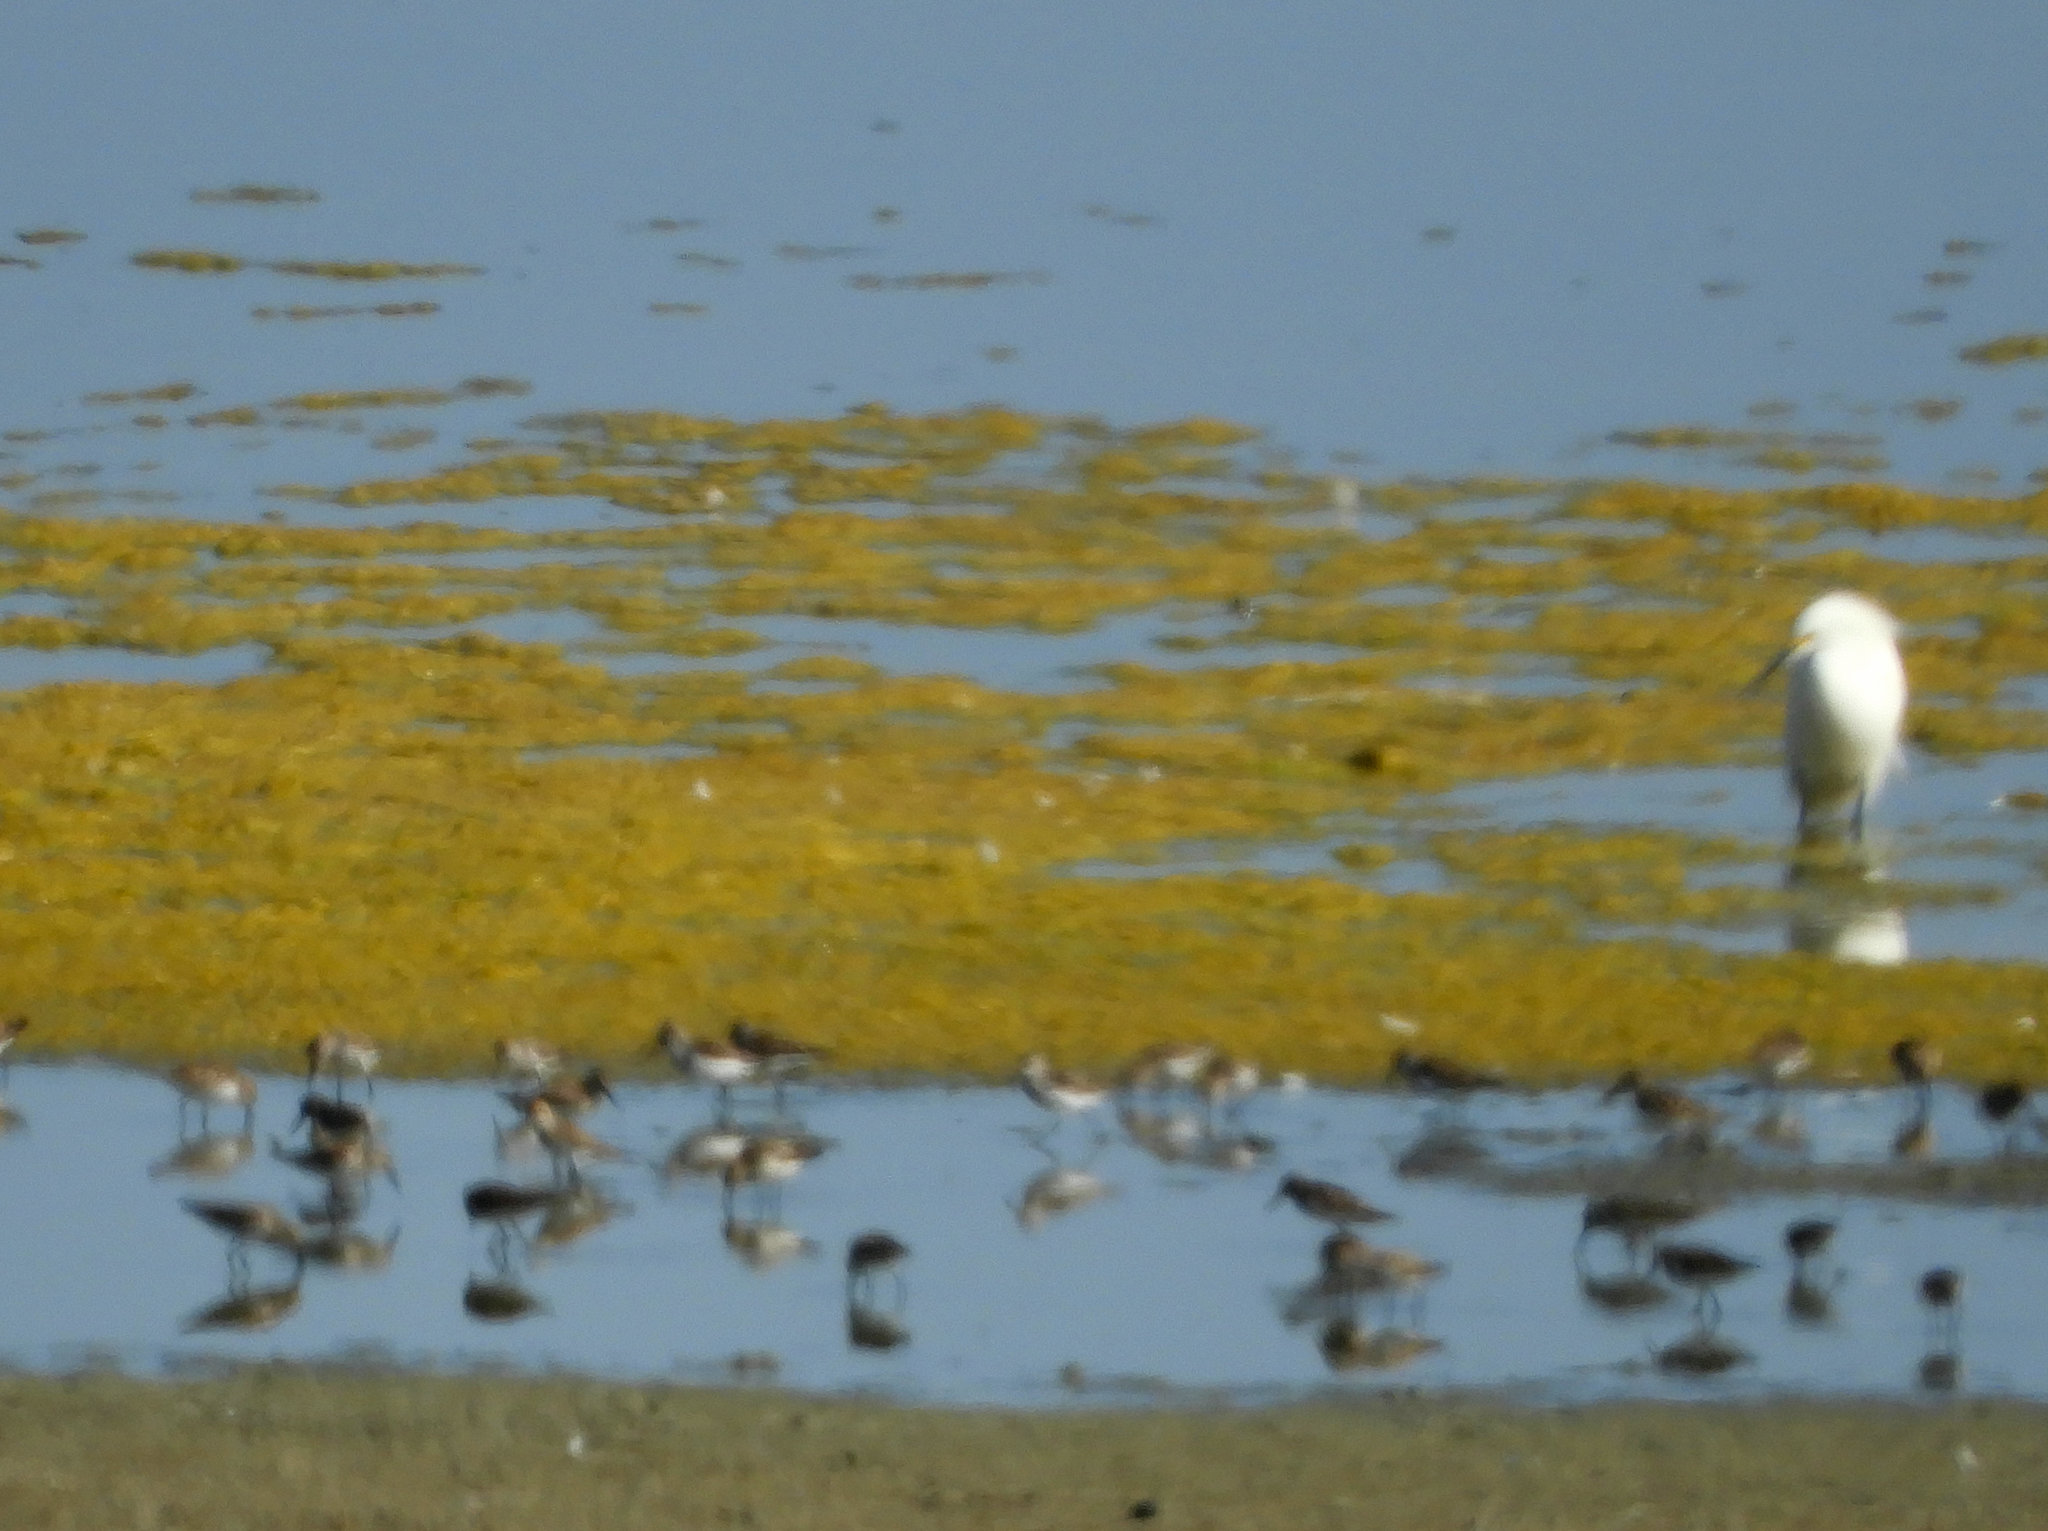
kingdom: Animalia
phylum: Chordata
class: Aves
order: Charadriiformes
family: Scolopacidae
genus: Calidris
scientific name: Calidris minutilla
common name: Least sandpiper
